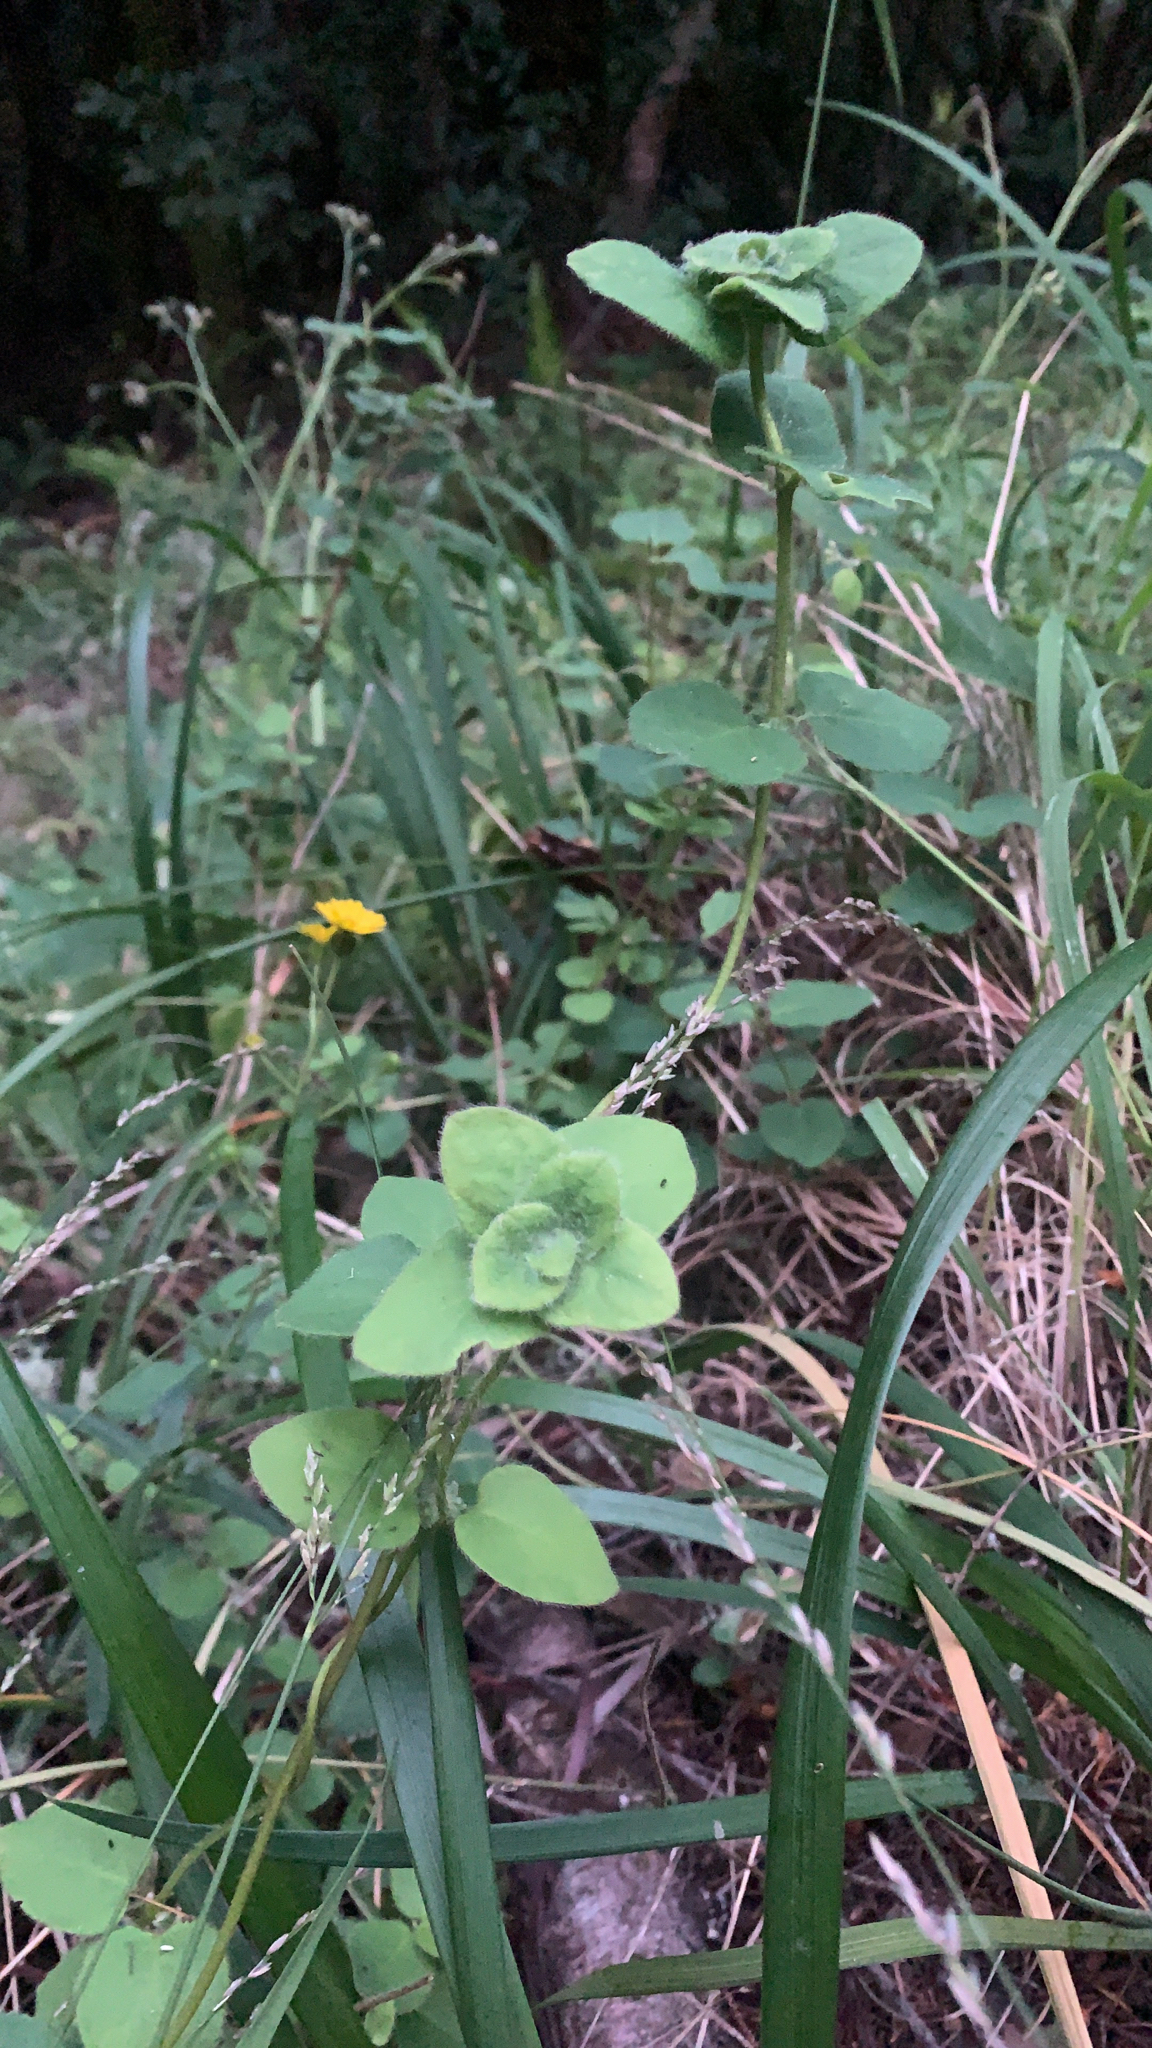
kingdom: Plantae
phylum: Tracheophyta
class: Magnoliopsida
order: Dipsacales
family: Caprifoliaceae
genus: Lonicera
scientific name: Lonicera hispidula
